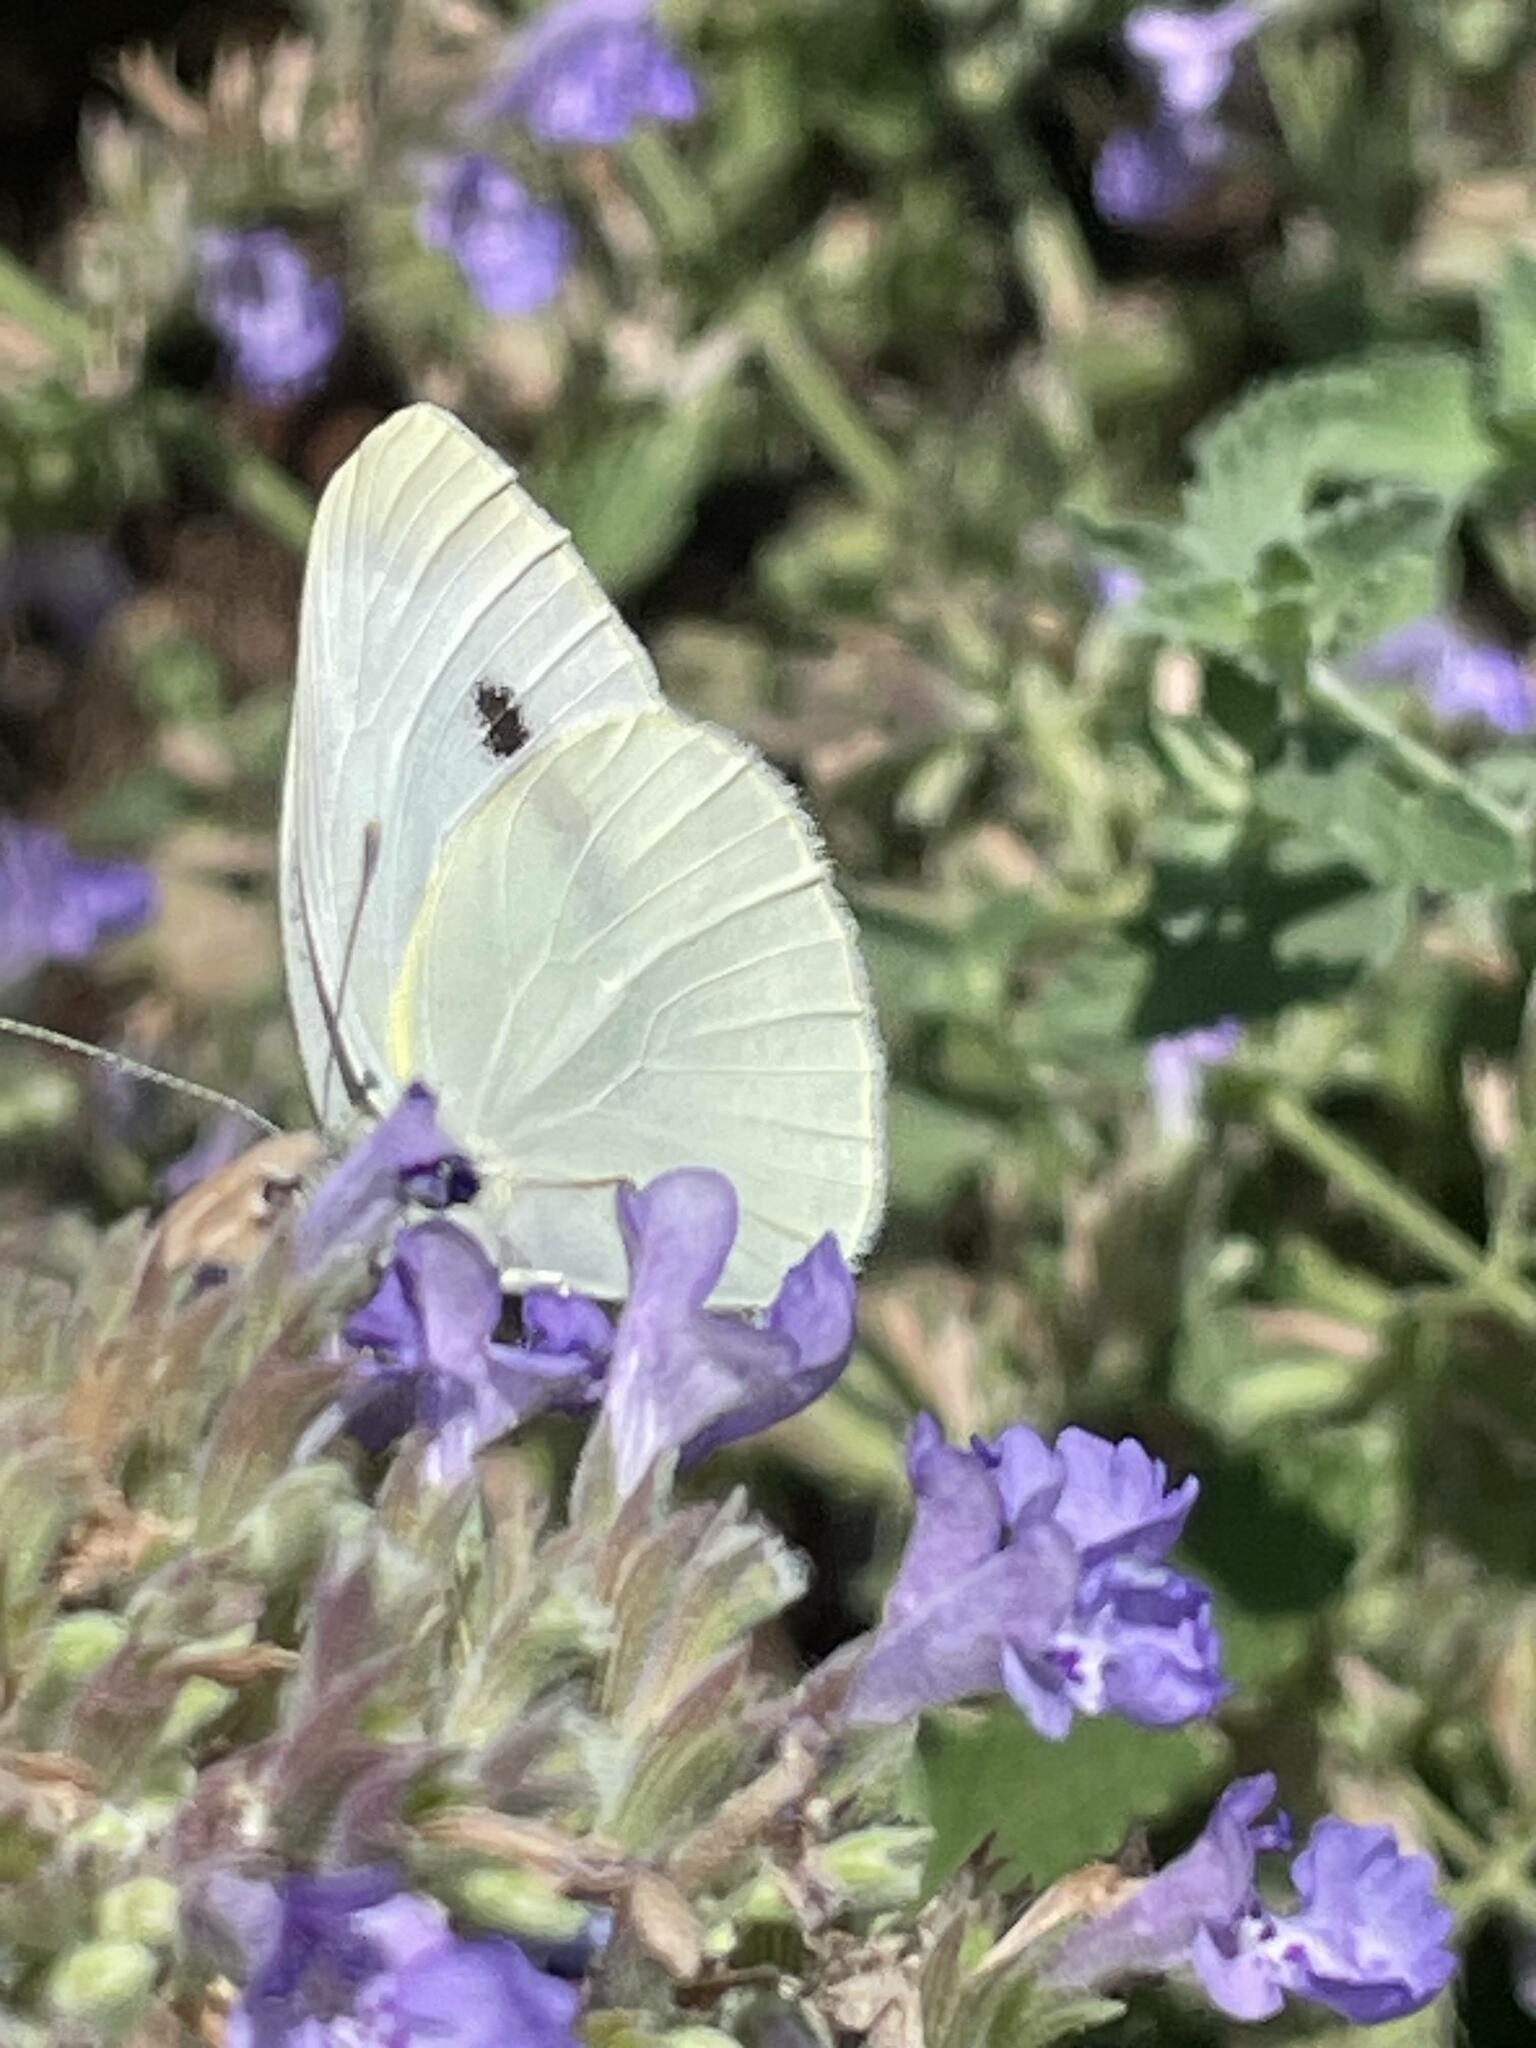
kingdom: Animalia
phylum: Arthropoda
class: Insecta
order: Lepidoptera
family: Pieridae
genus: Pieris
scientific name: Pieris rapae
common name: Small white
